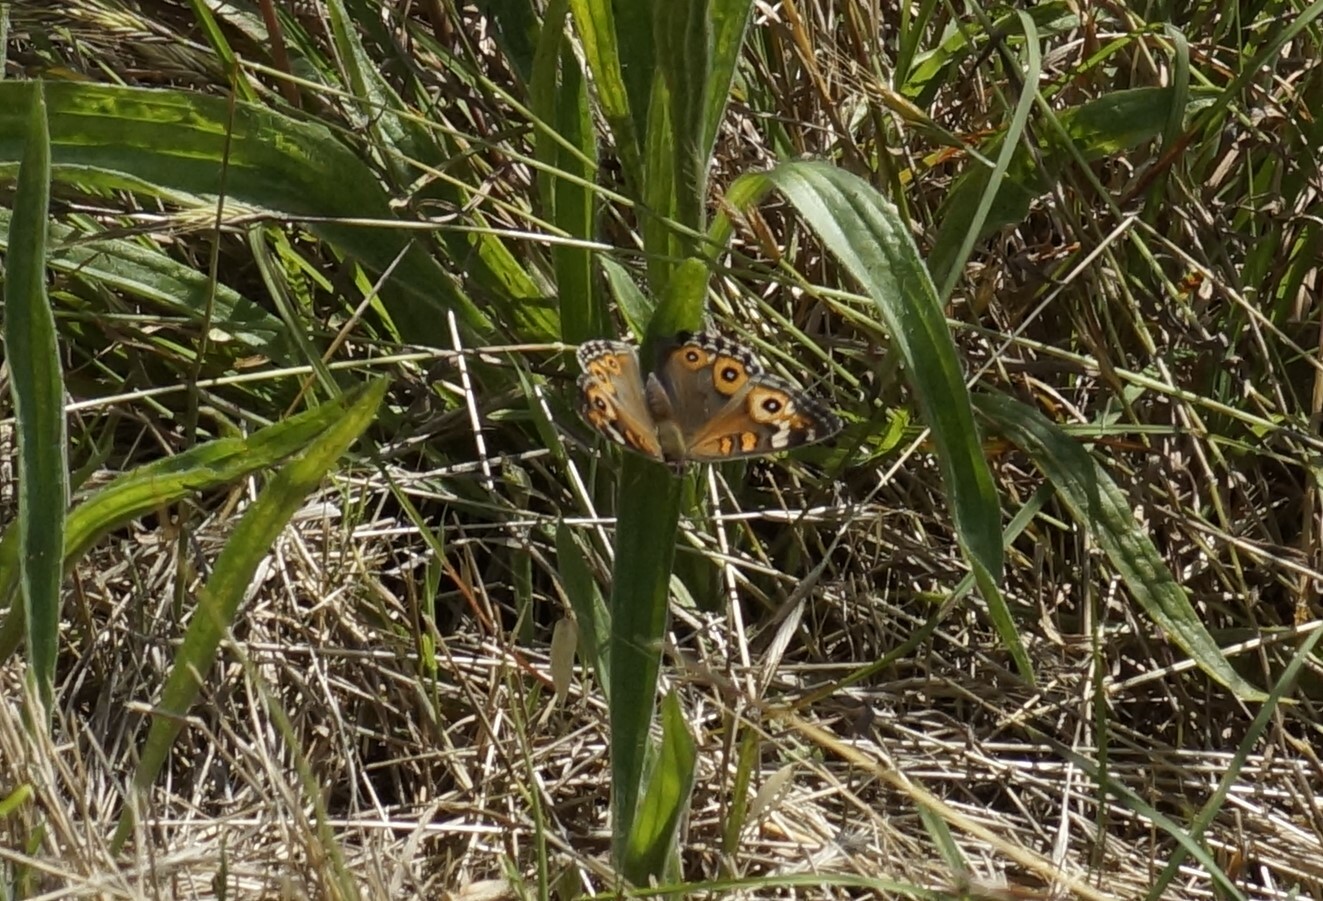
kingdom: Animalia
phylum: Arthropoda
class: Insecta
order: Lepidoptera
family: Nymphalidae
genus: Junonia
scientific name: Junonia villida
